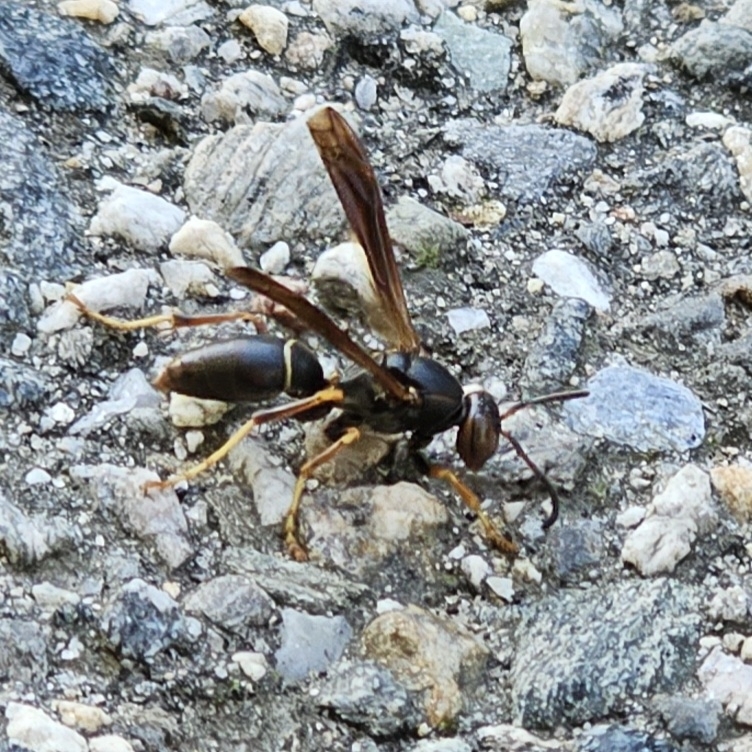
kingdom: Animalia
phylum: Arthropoda
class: Insecta
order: Hymenoptera
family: Eumenidae
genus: Polistes
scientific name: Polistes parametricus
